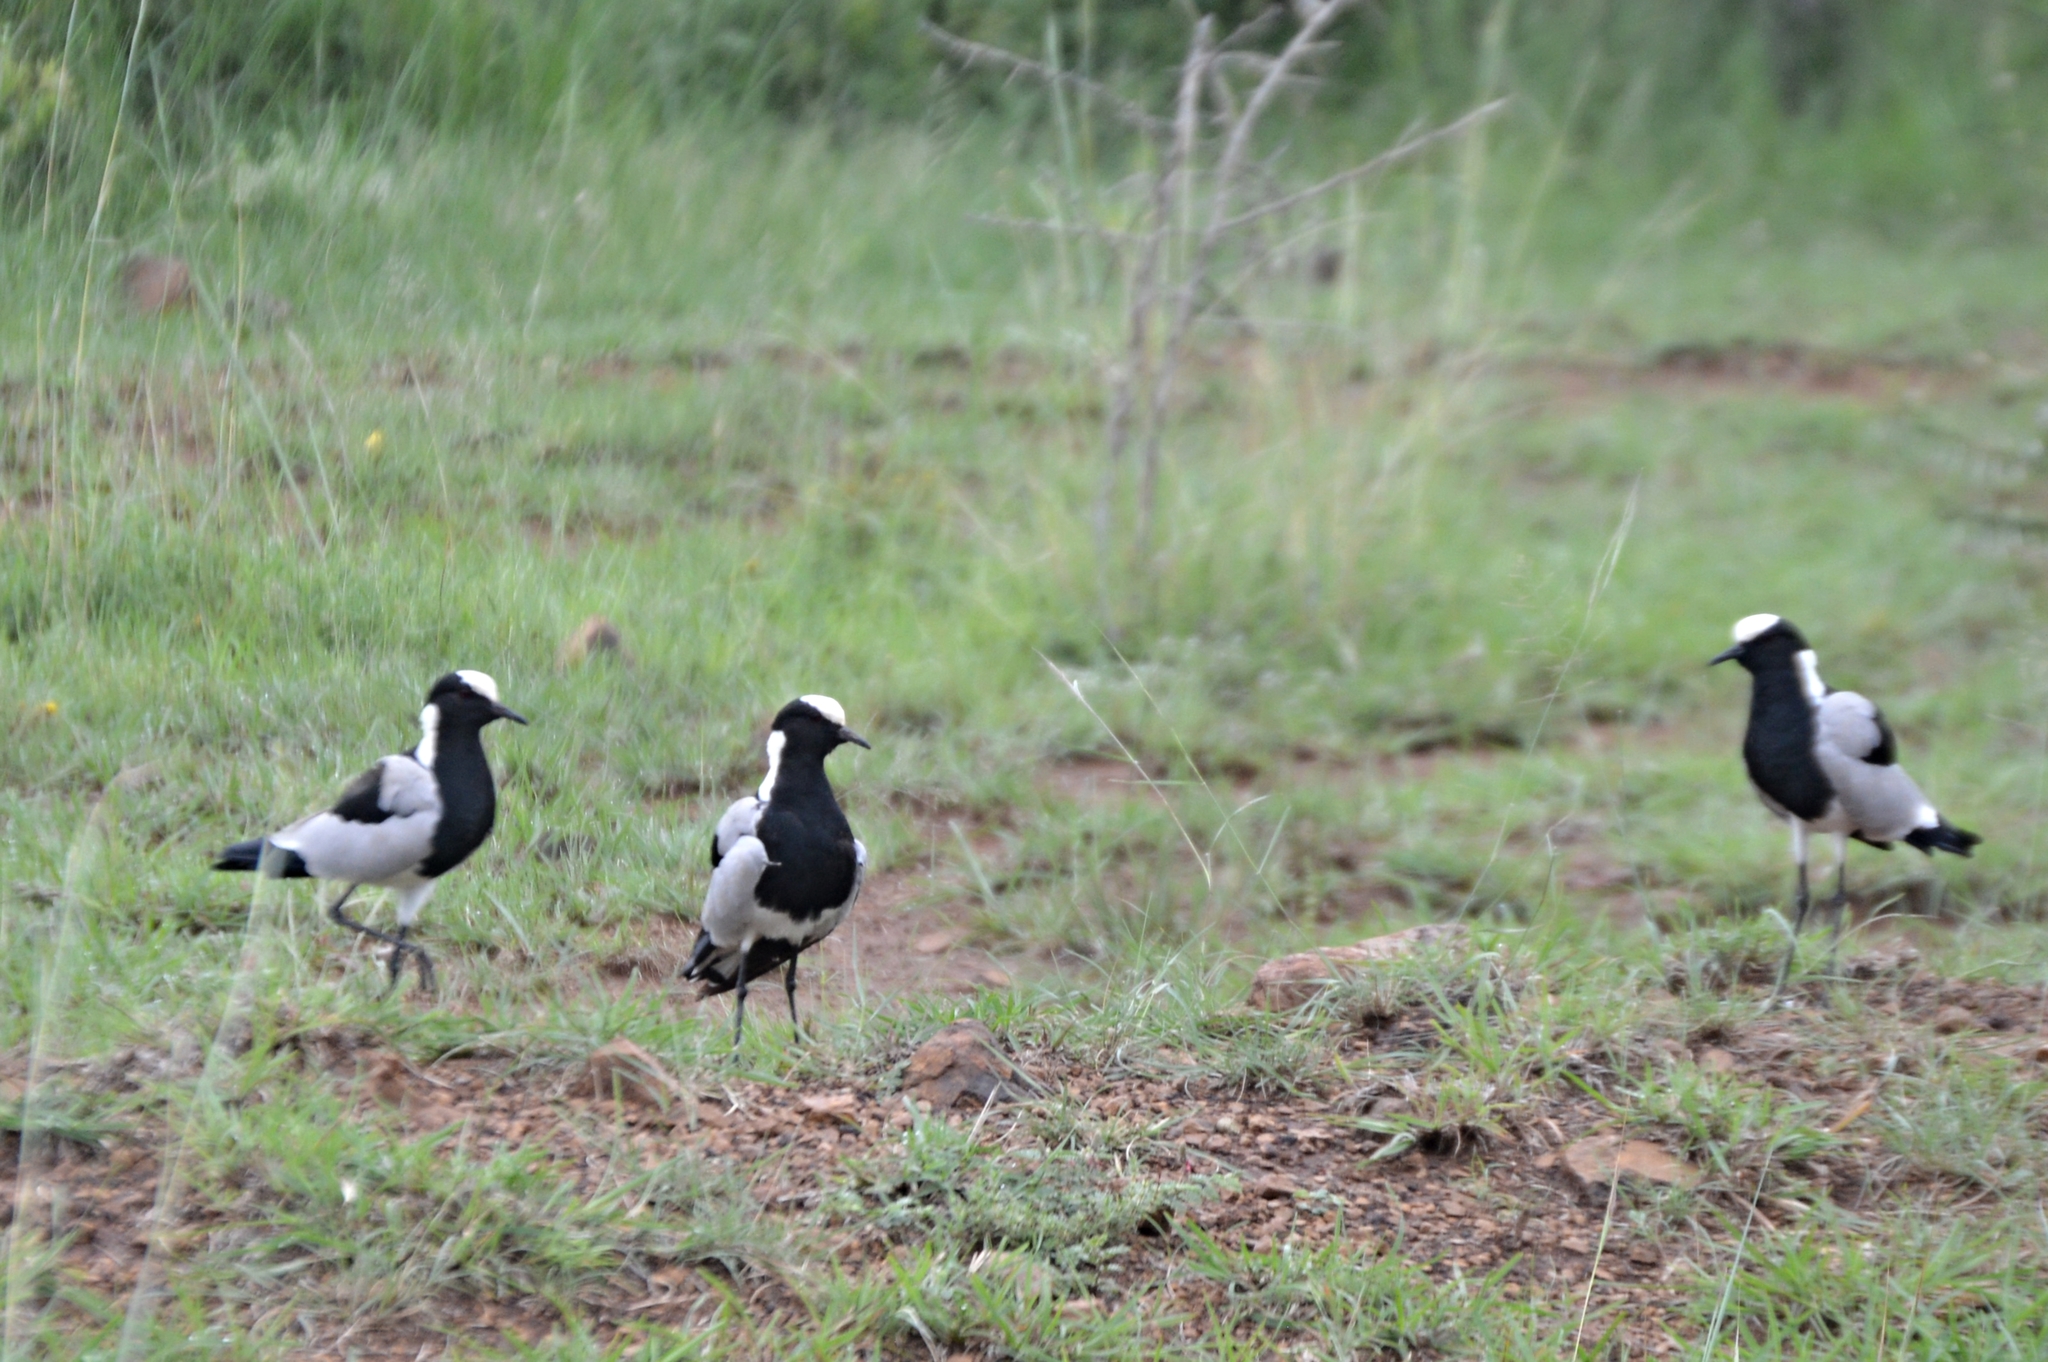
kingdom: Animalia
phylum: Chordata
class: Aves
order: Charadriiformes
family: Charadriidae
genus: Vanellus
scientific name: Vanellus armatus
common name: Blacksmith lapwing
